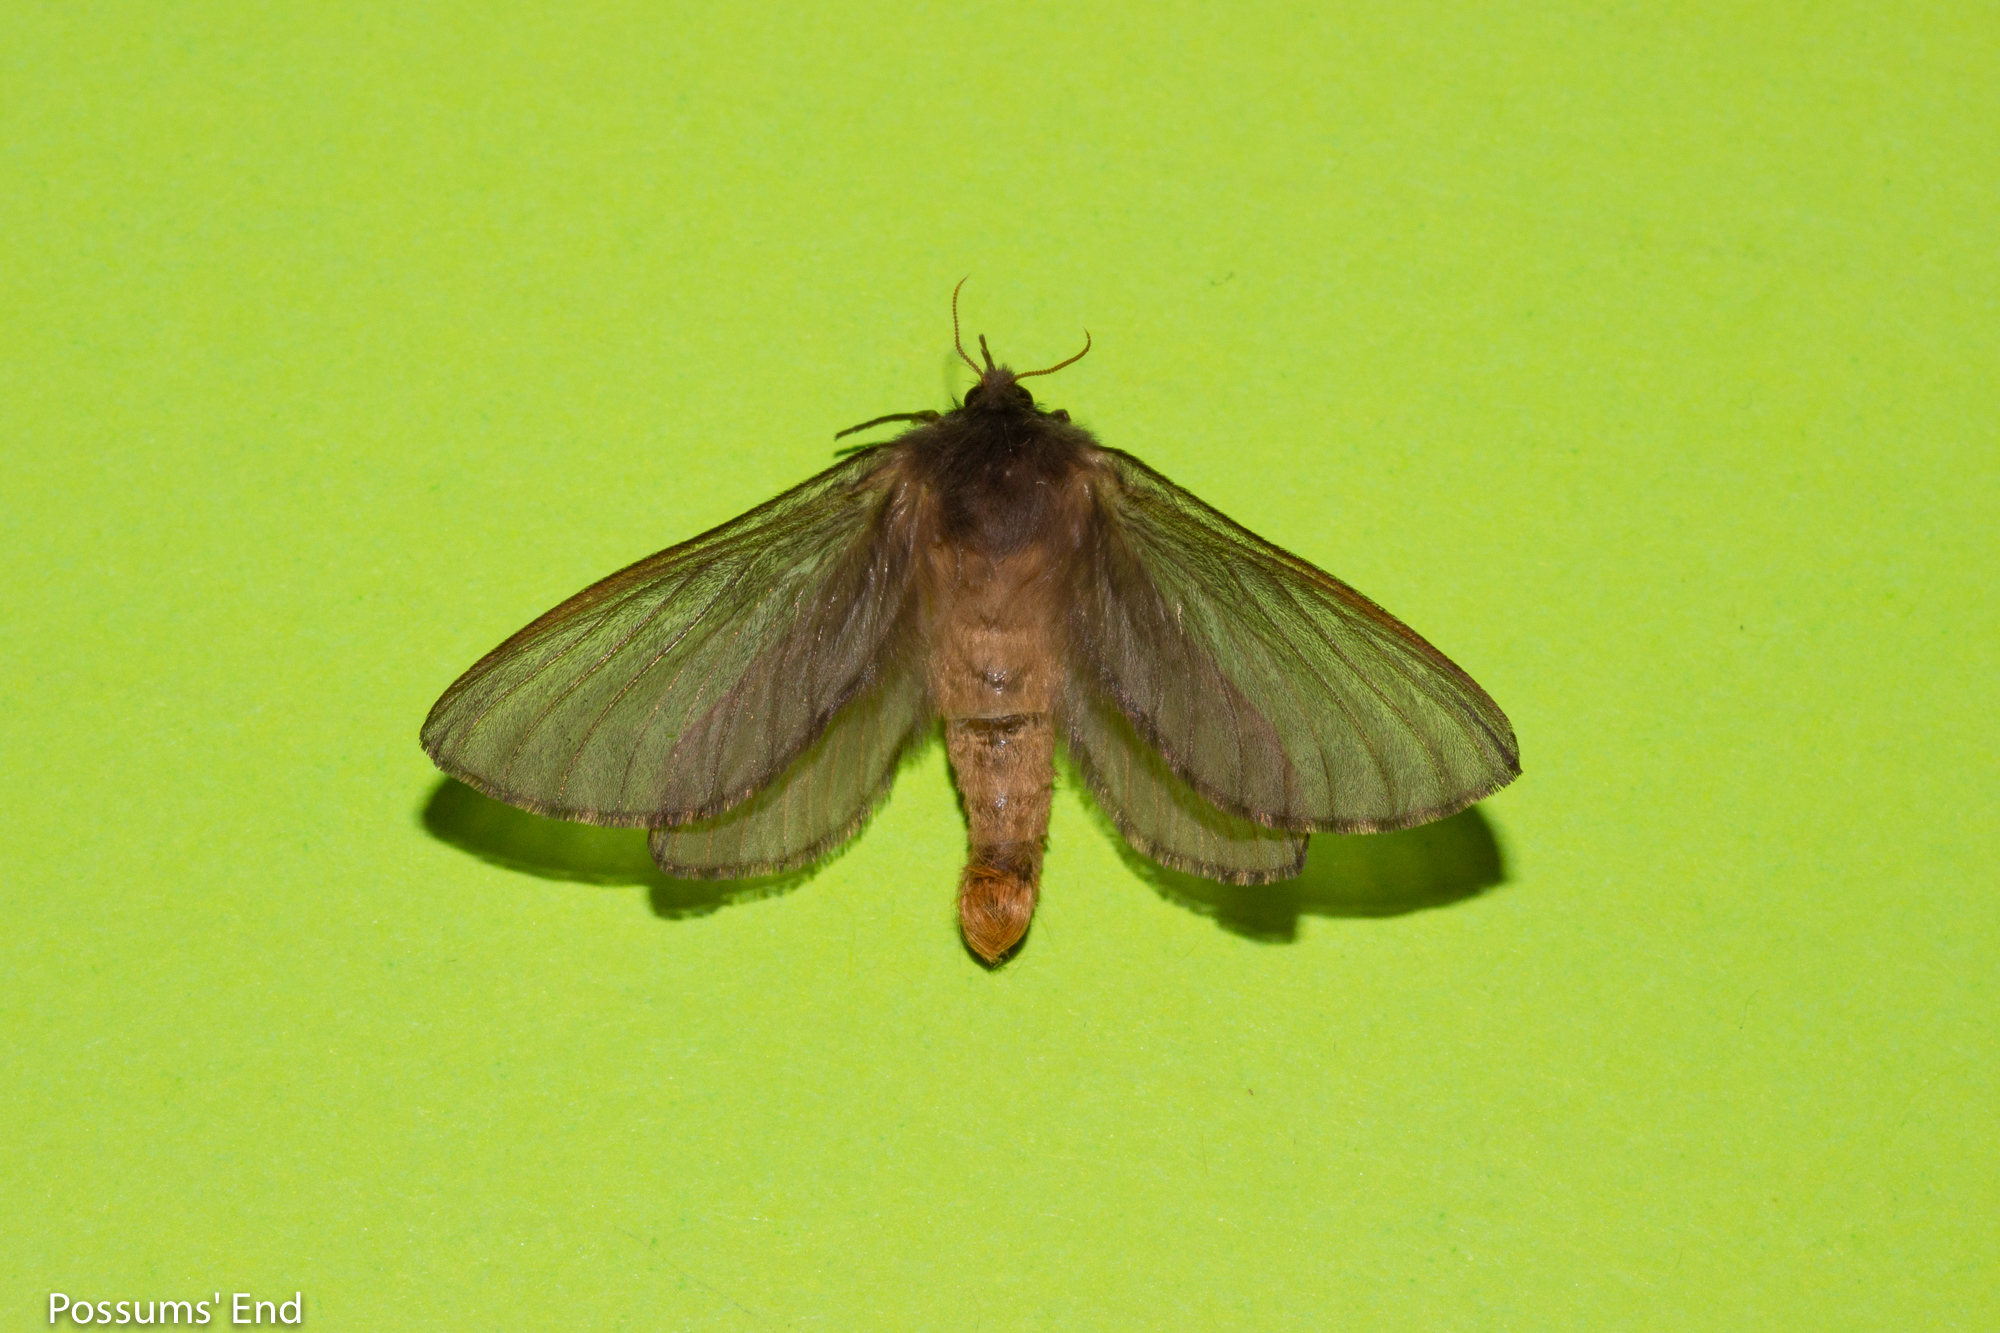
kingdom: Animalia
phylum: Arthropoda
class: Insecta
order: Lepidoptera
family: Hepialidae
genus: Cladoxycanus
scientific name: Cladoxycanus minos
